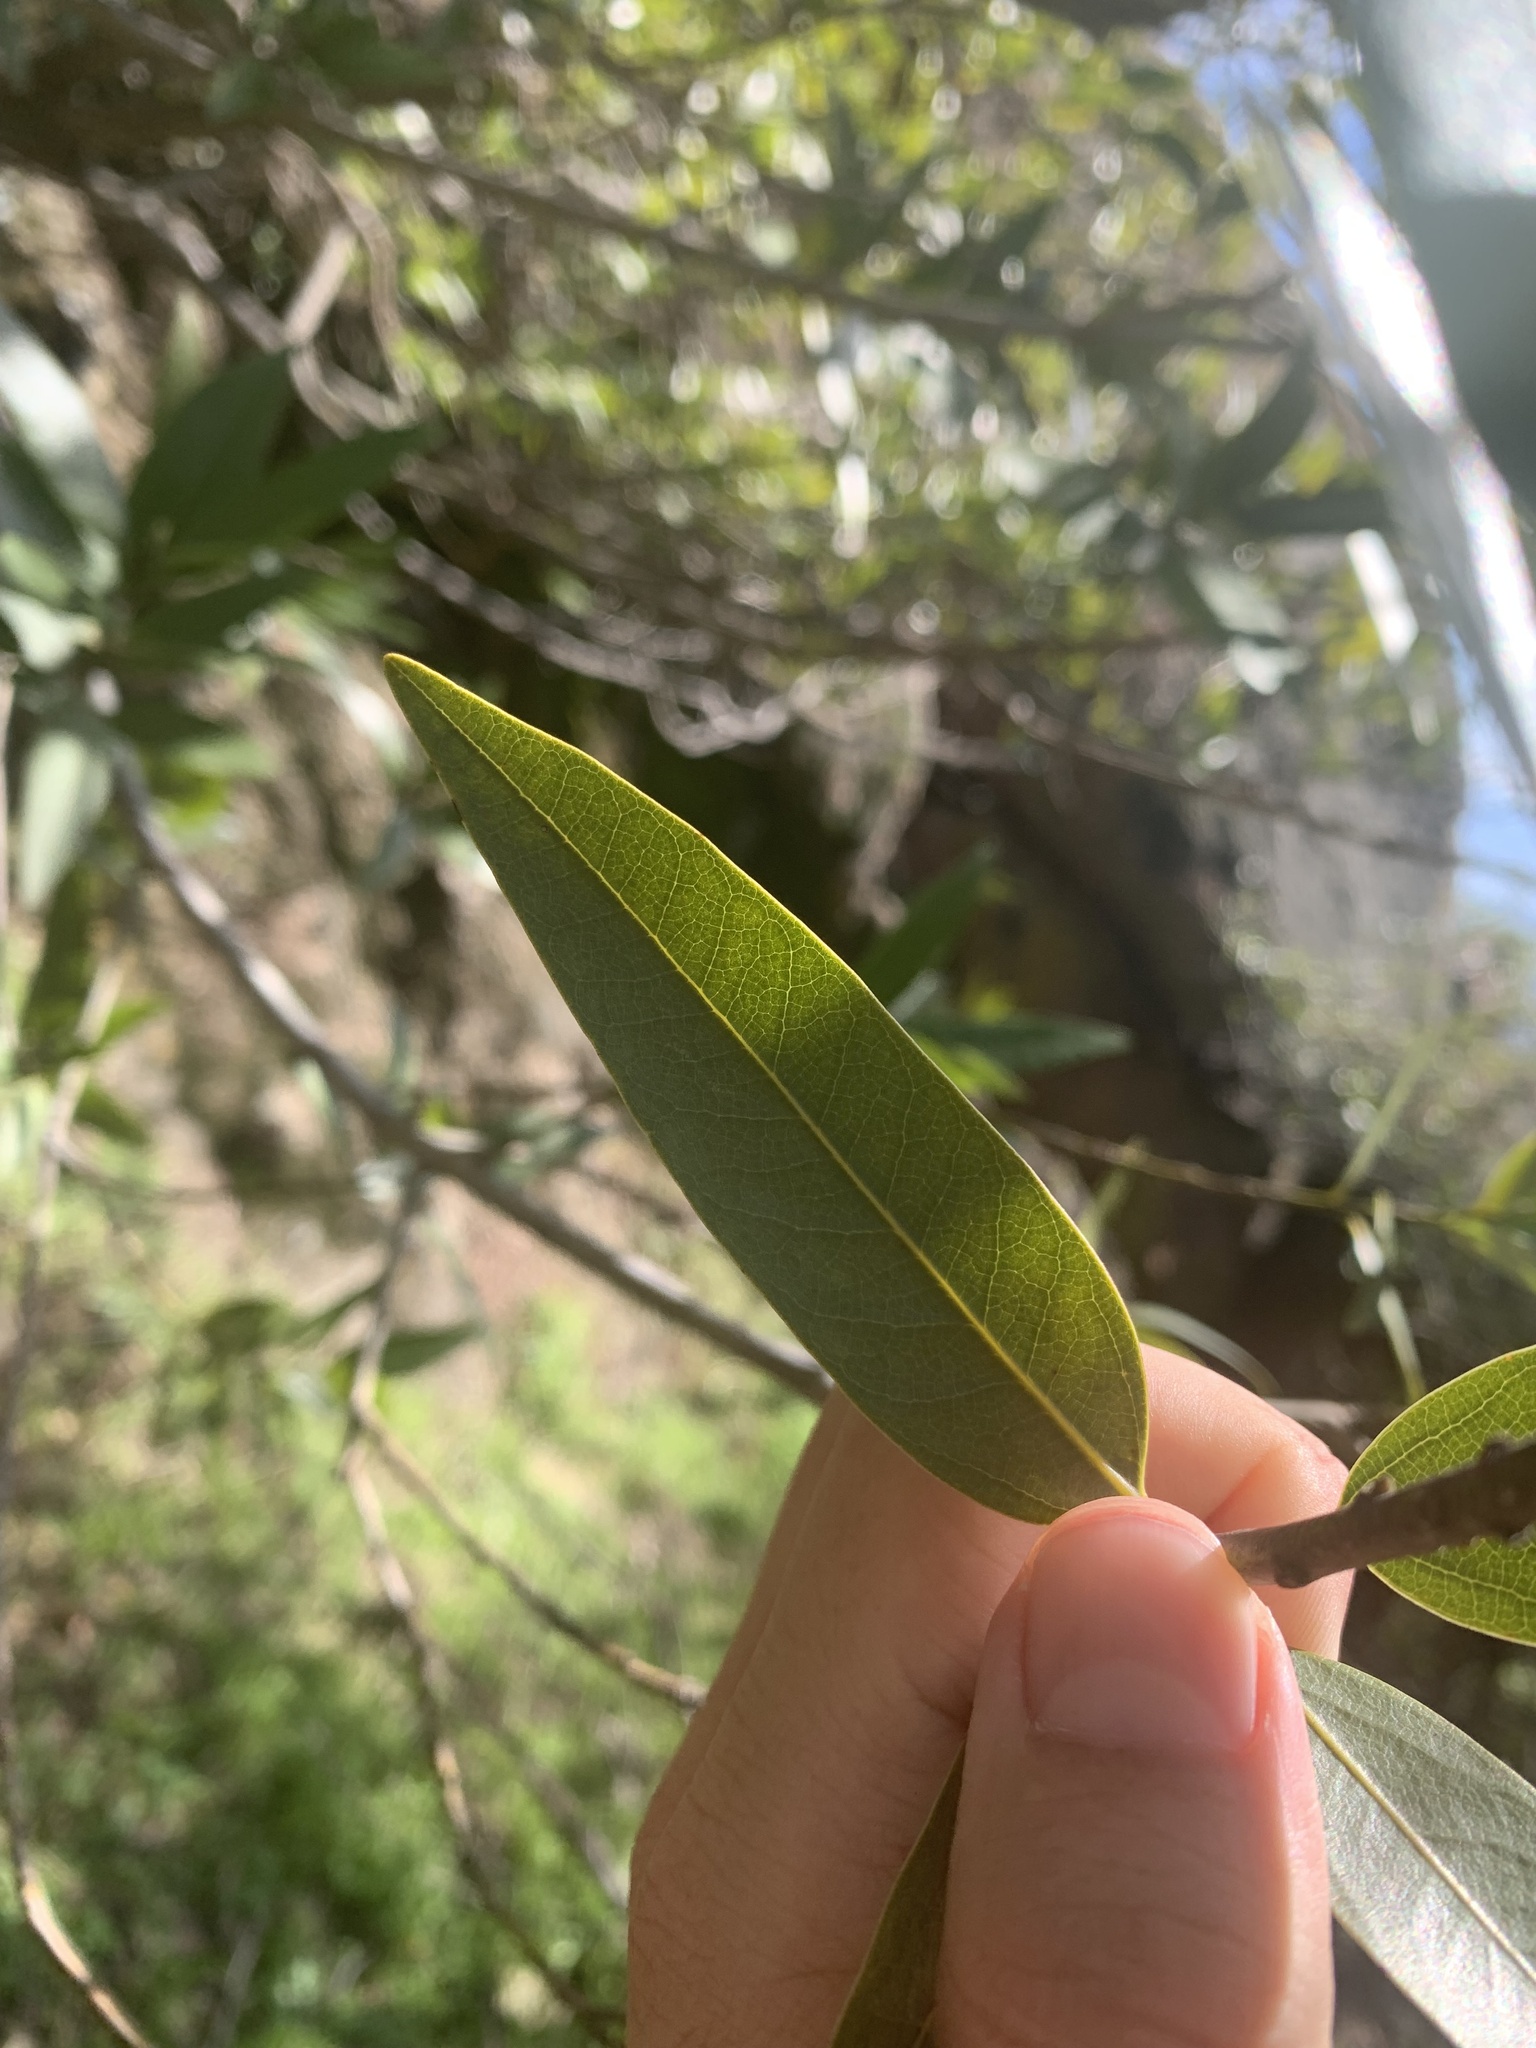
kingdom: Plantae
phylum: Tracheophyta
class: Magnoliopsida
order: Laurales
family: Lauraceae
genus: Umbellularia
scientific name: Umbellularia californica
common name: California bay
